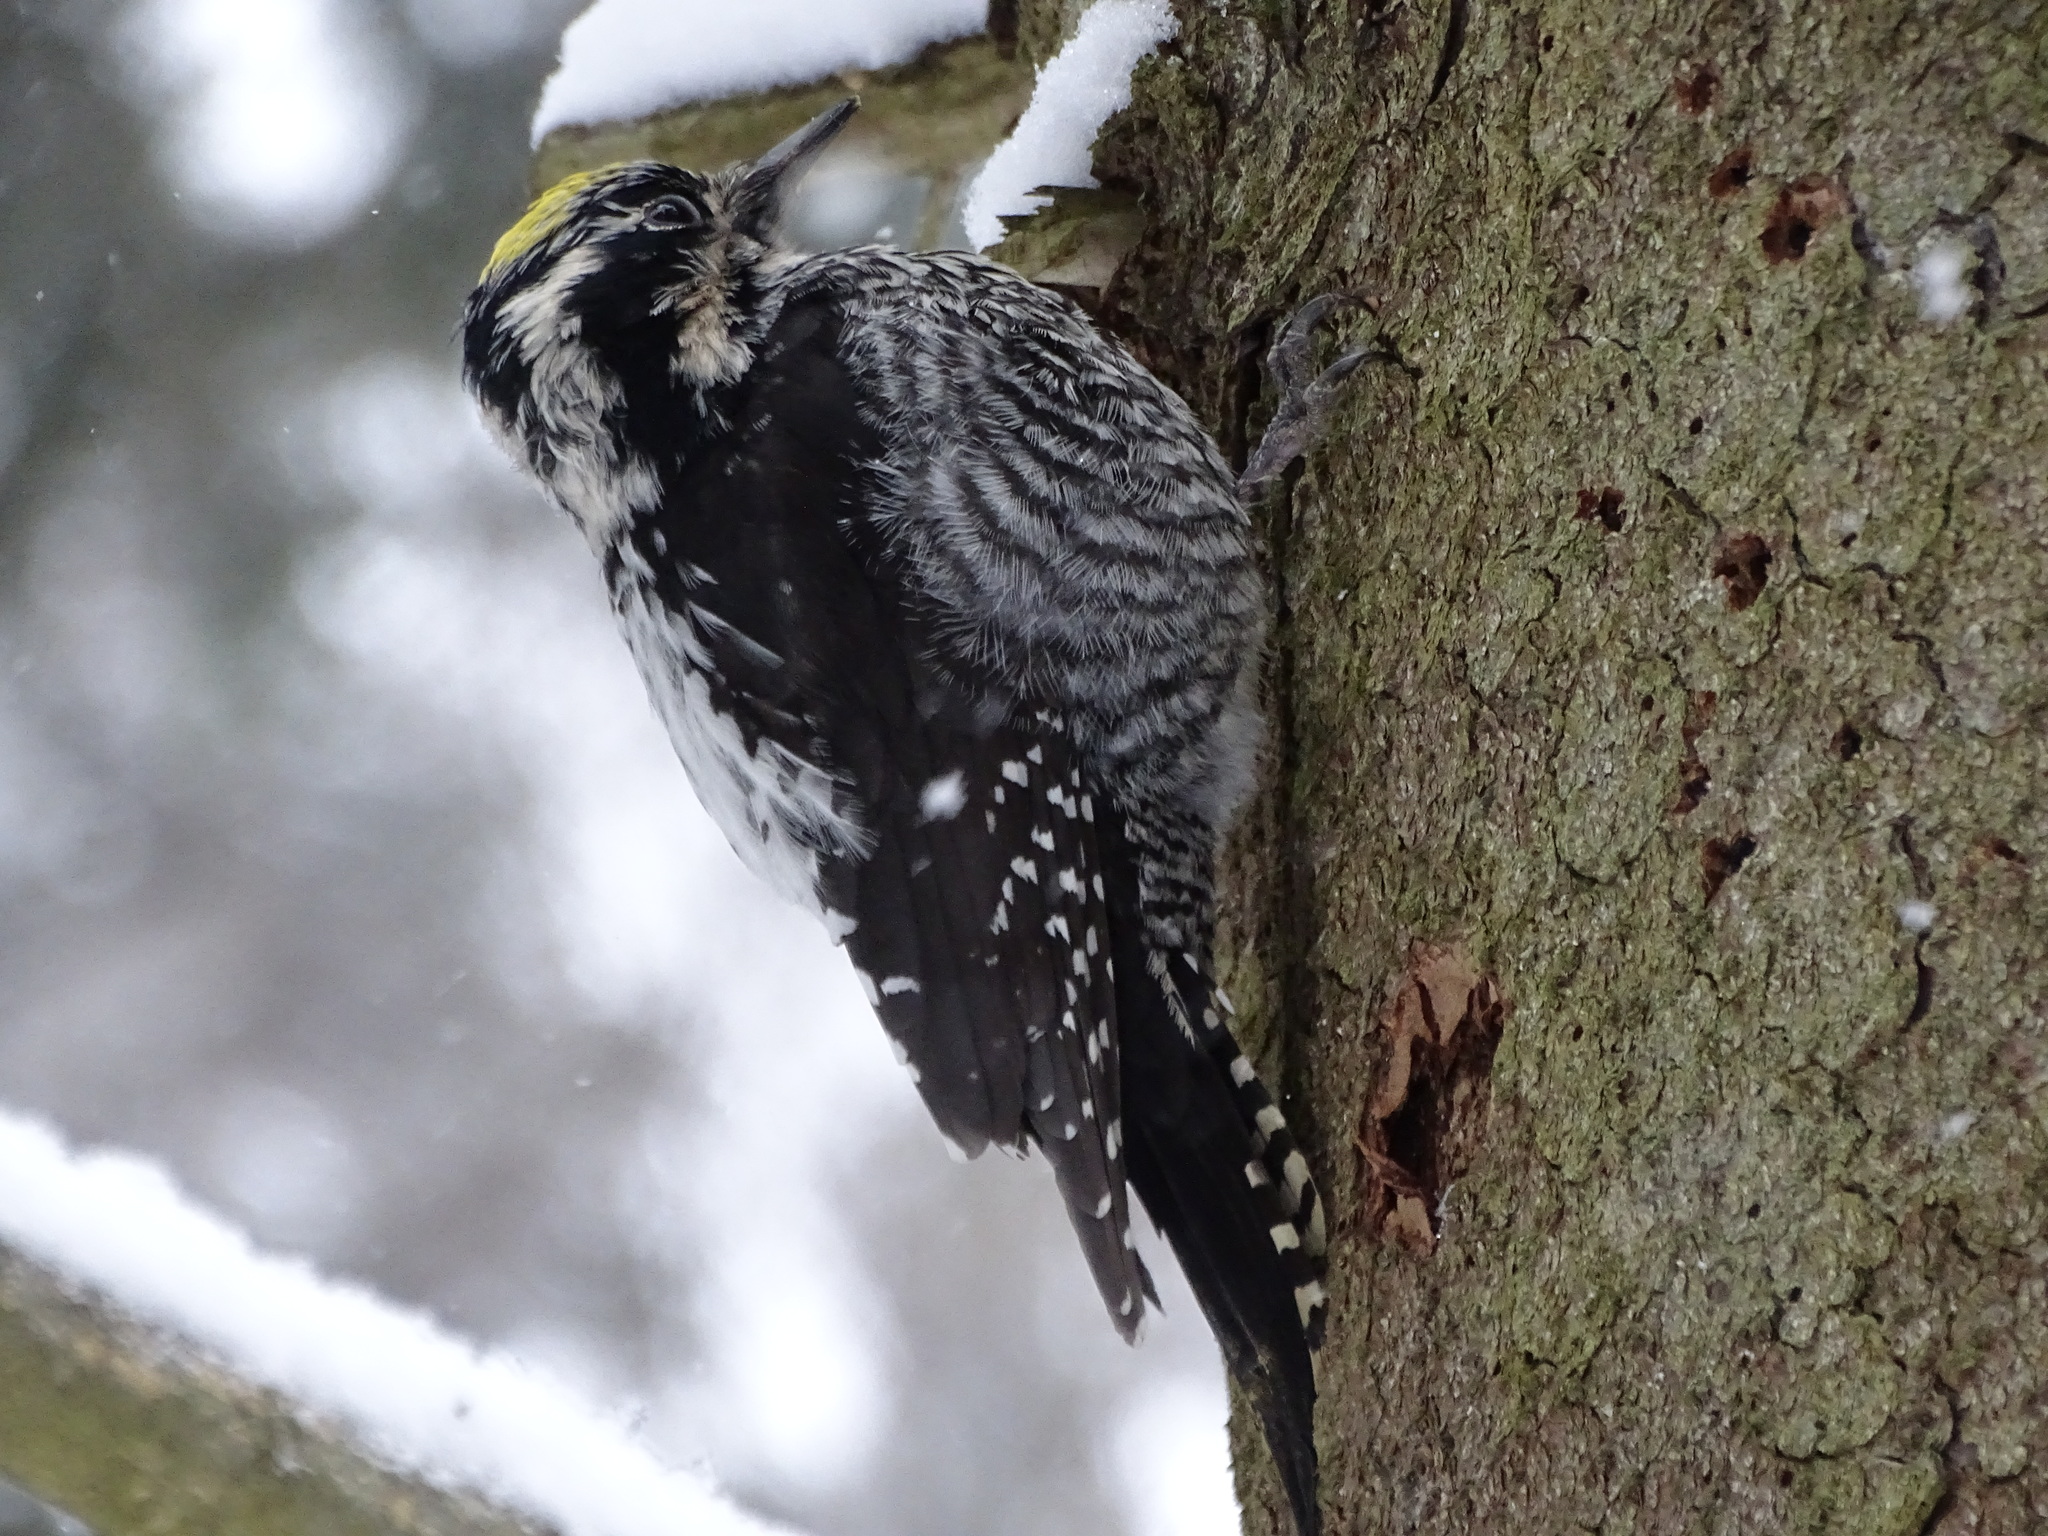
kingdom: Animalia
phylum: Chordata
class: Aves
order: Piciformes
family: Picidae
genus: Picoides
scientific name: Picoides tridactylus
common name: Eurasian three-toed woodpecker
